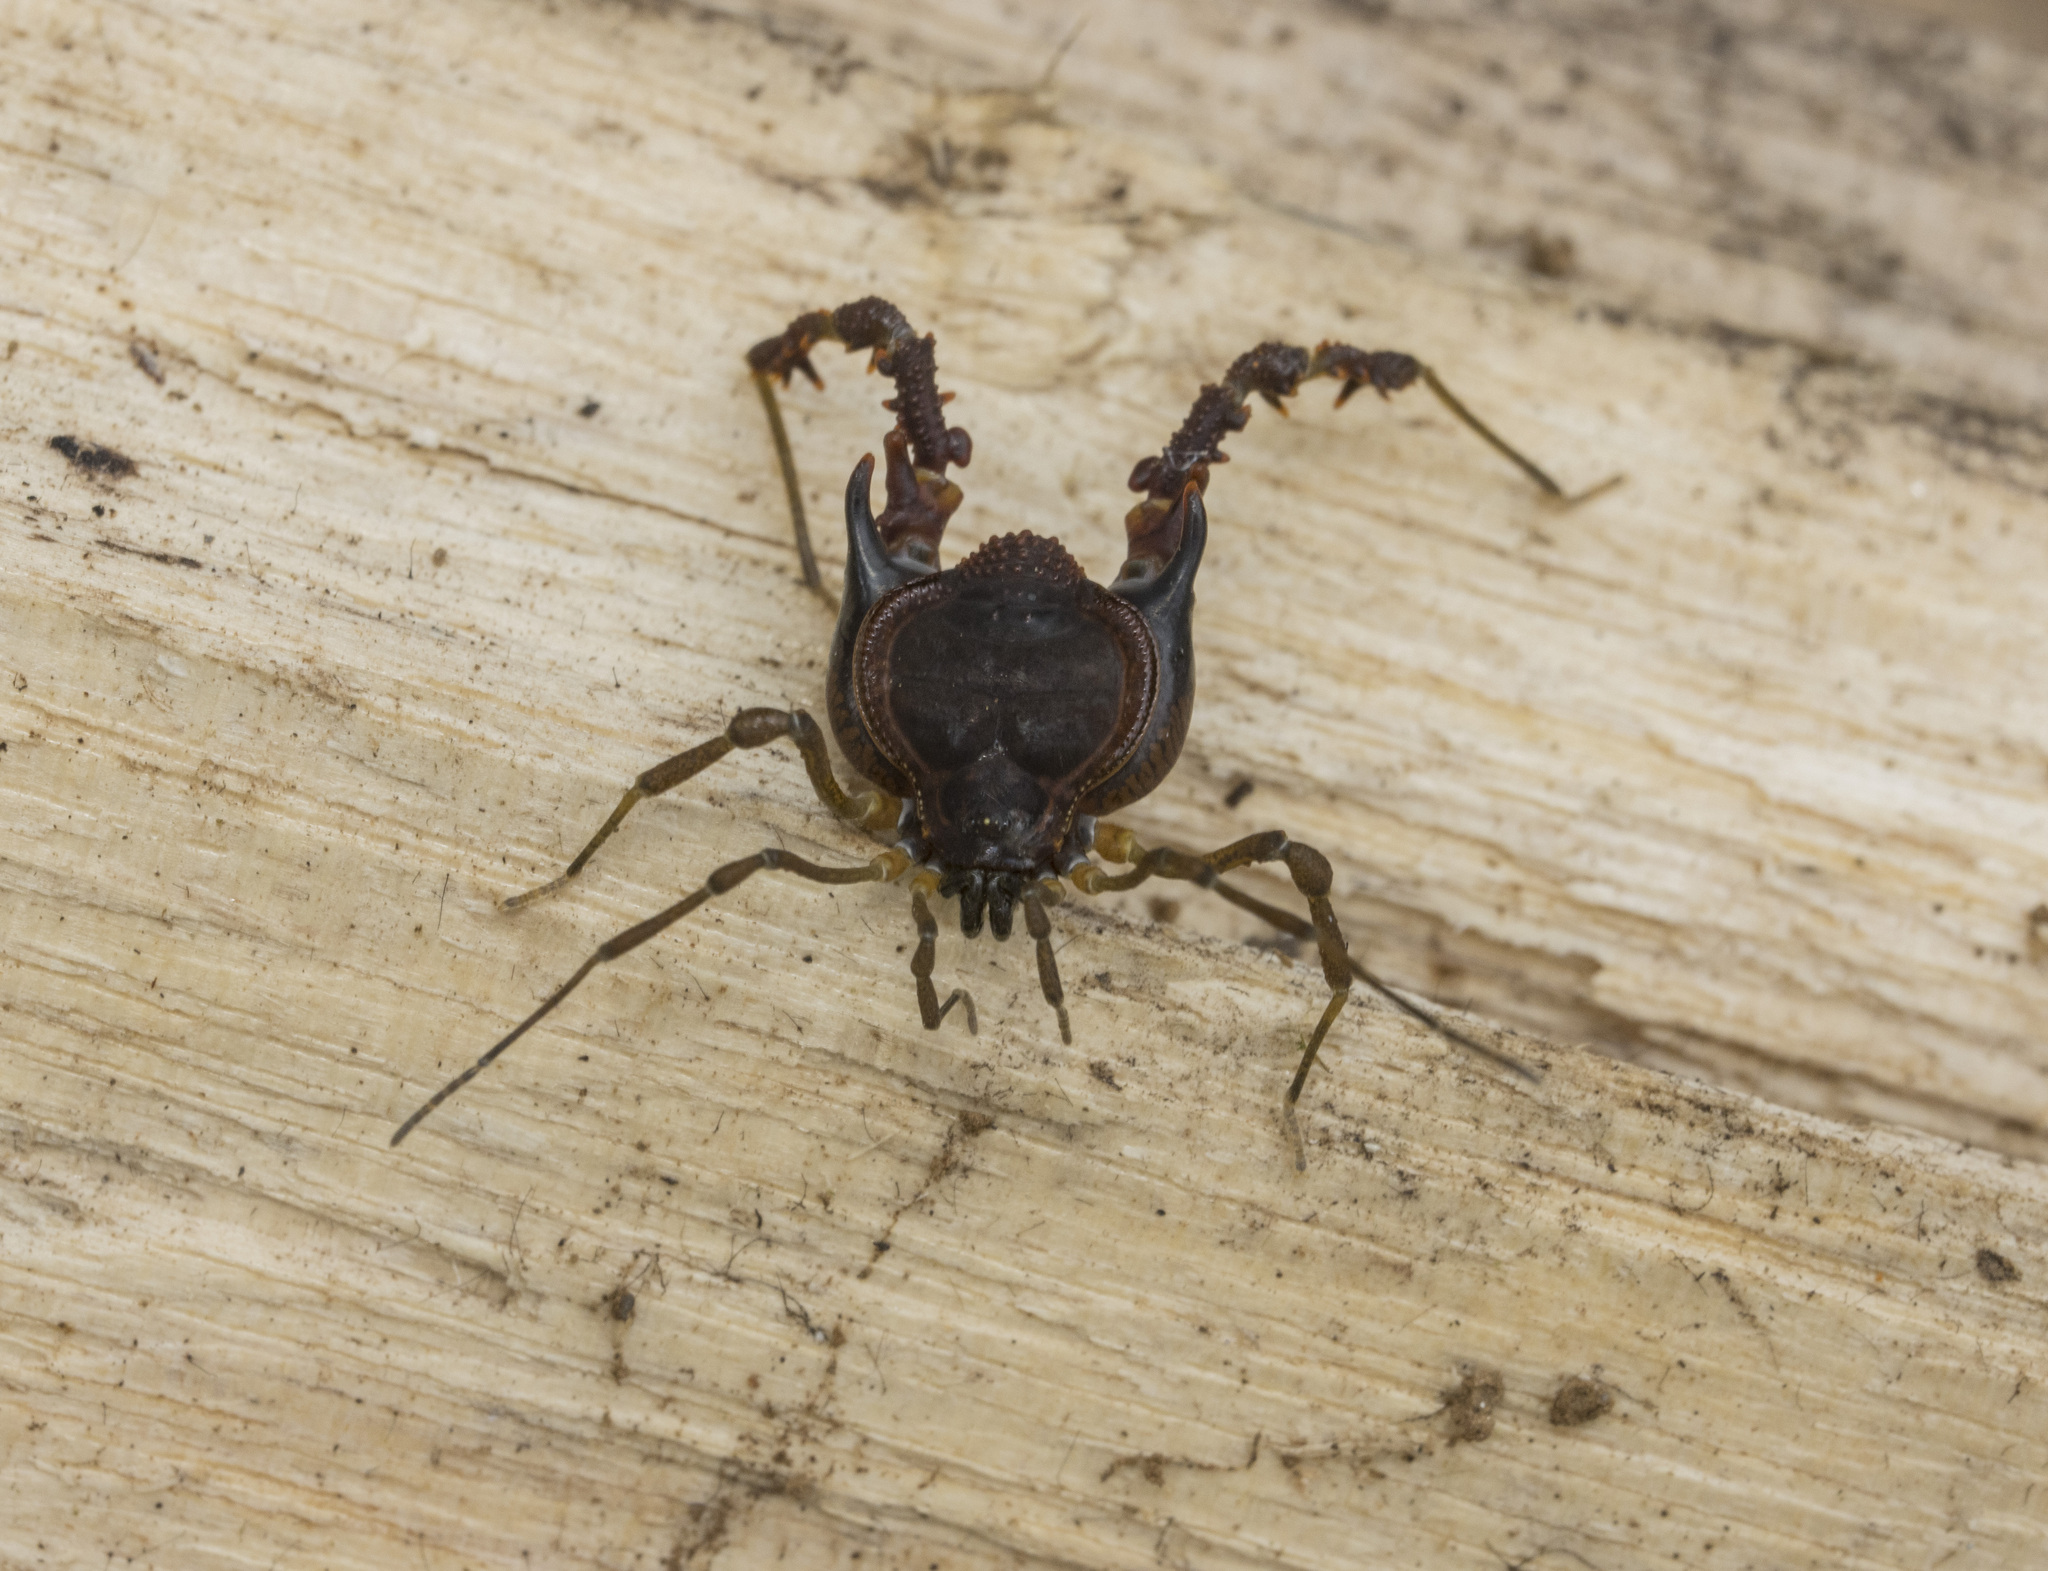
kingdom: Animalia
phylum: Arthropoda
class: Arachnida
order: Opiliones
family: Gonyleptidae
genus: Metagyndes
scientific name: Metagyndes pulchellus
